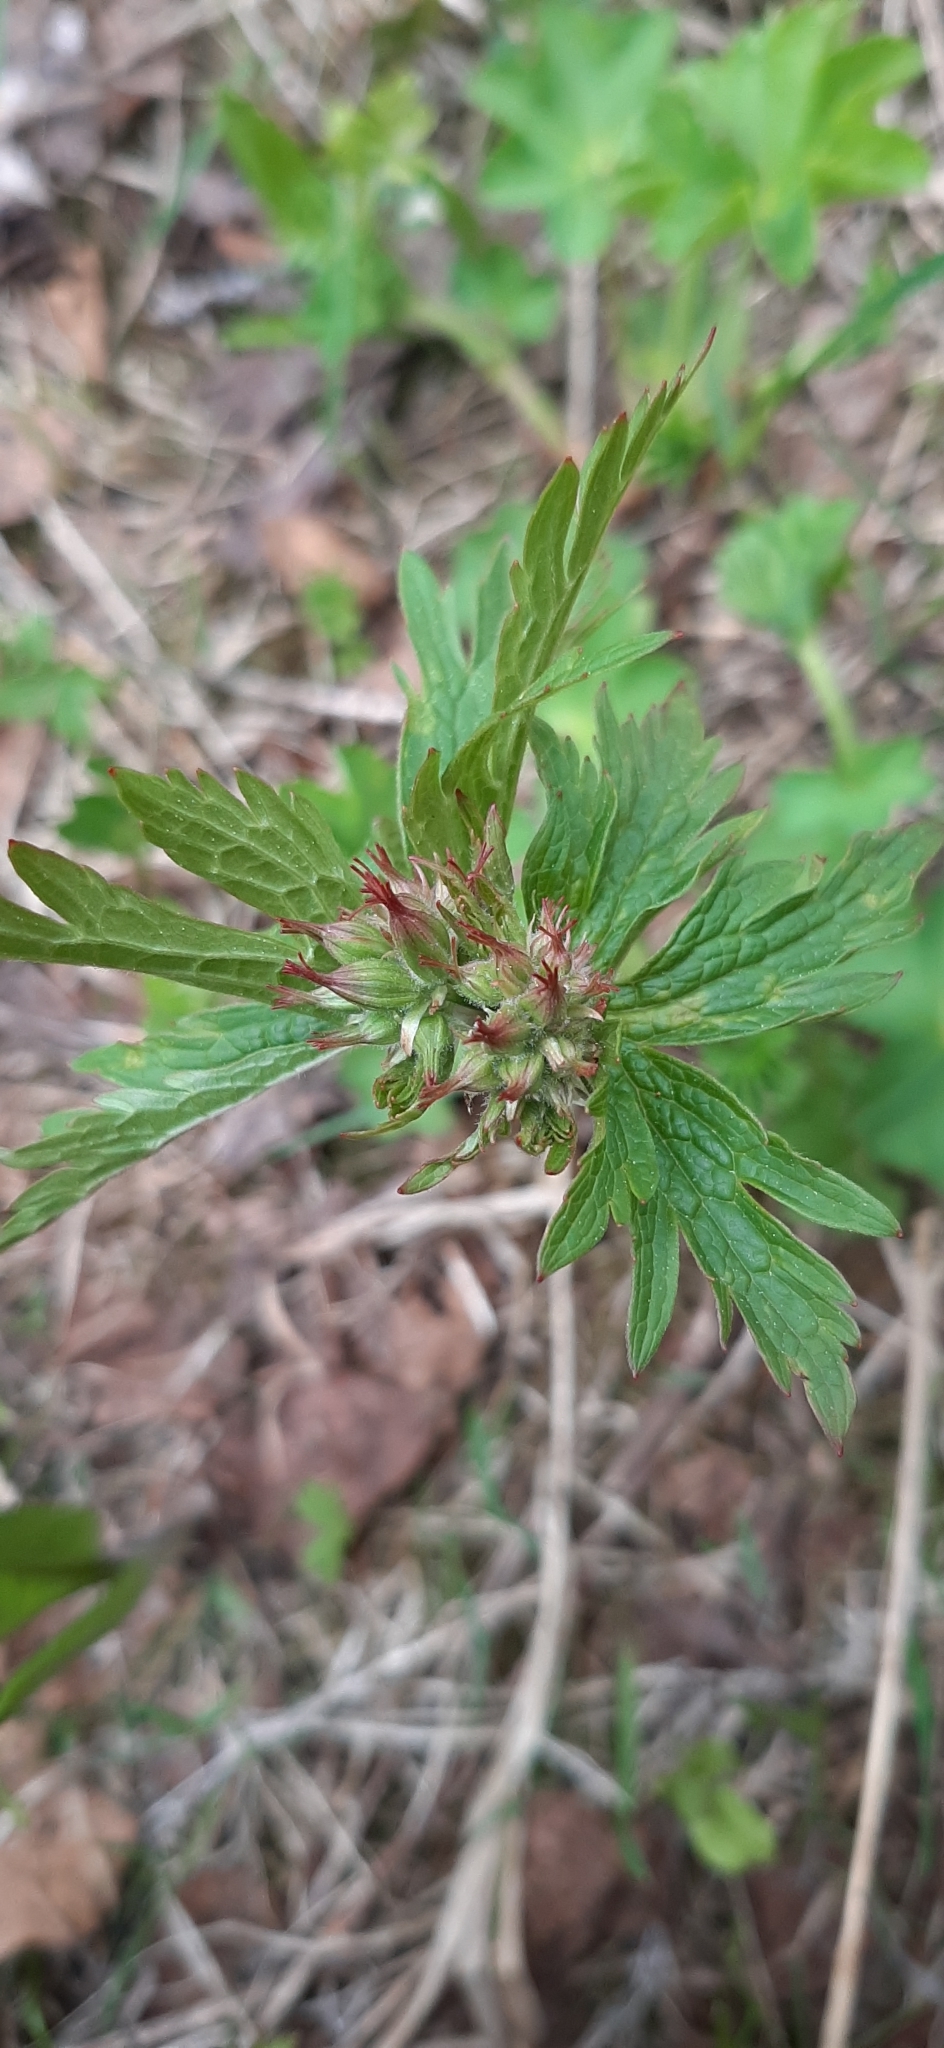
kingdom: Plantae
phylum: Tracheophyta
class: Magnoliopsida
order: Geraniales
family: Geraniaceae
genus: Geranium
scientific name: Geranium sylvaticum
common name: Wood crane's-bill
